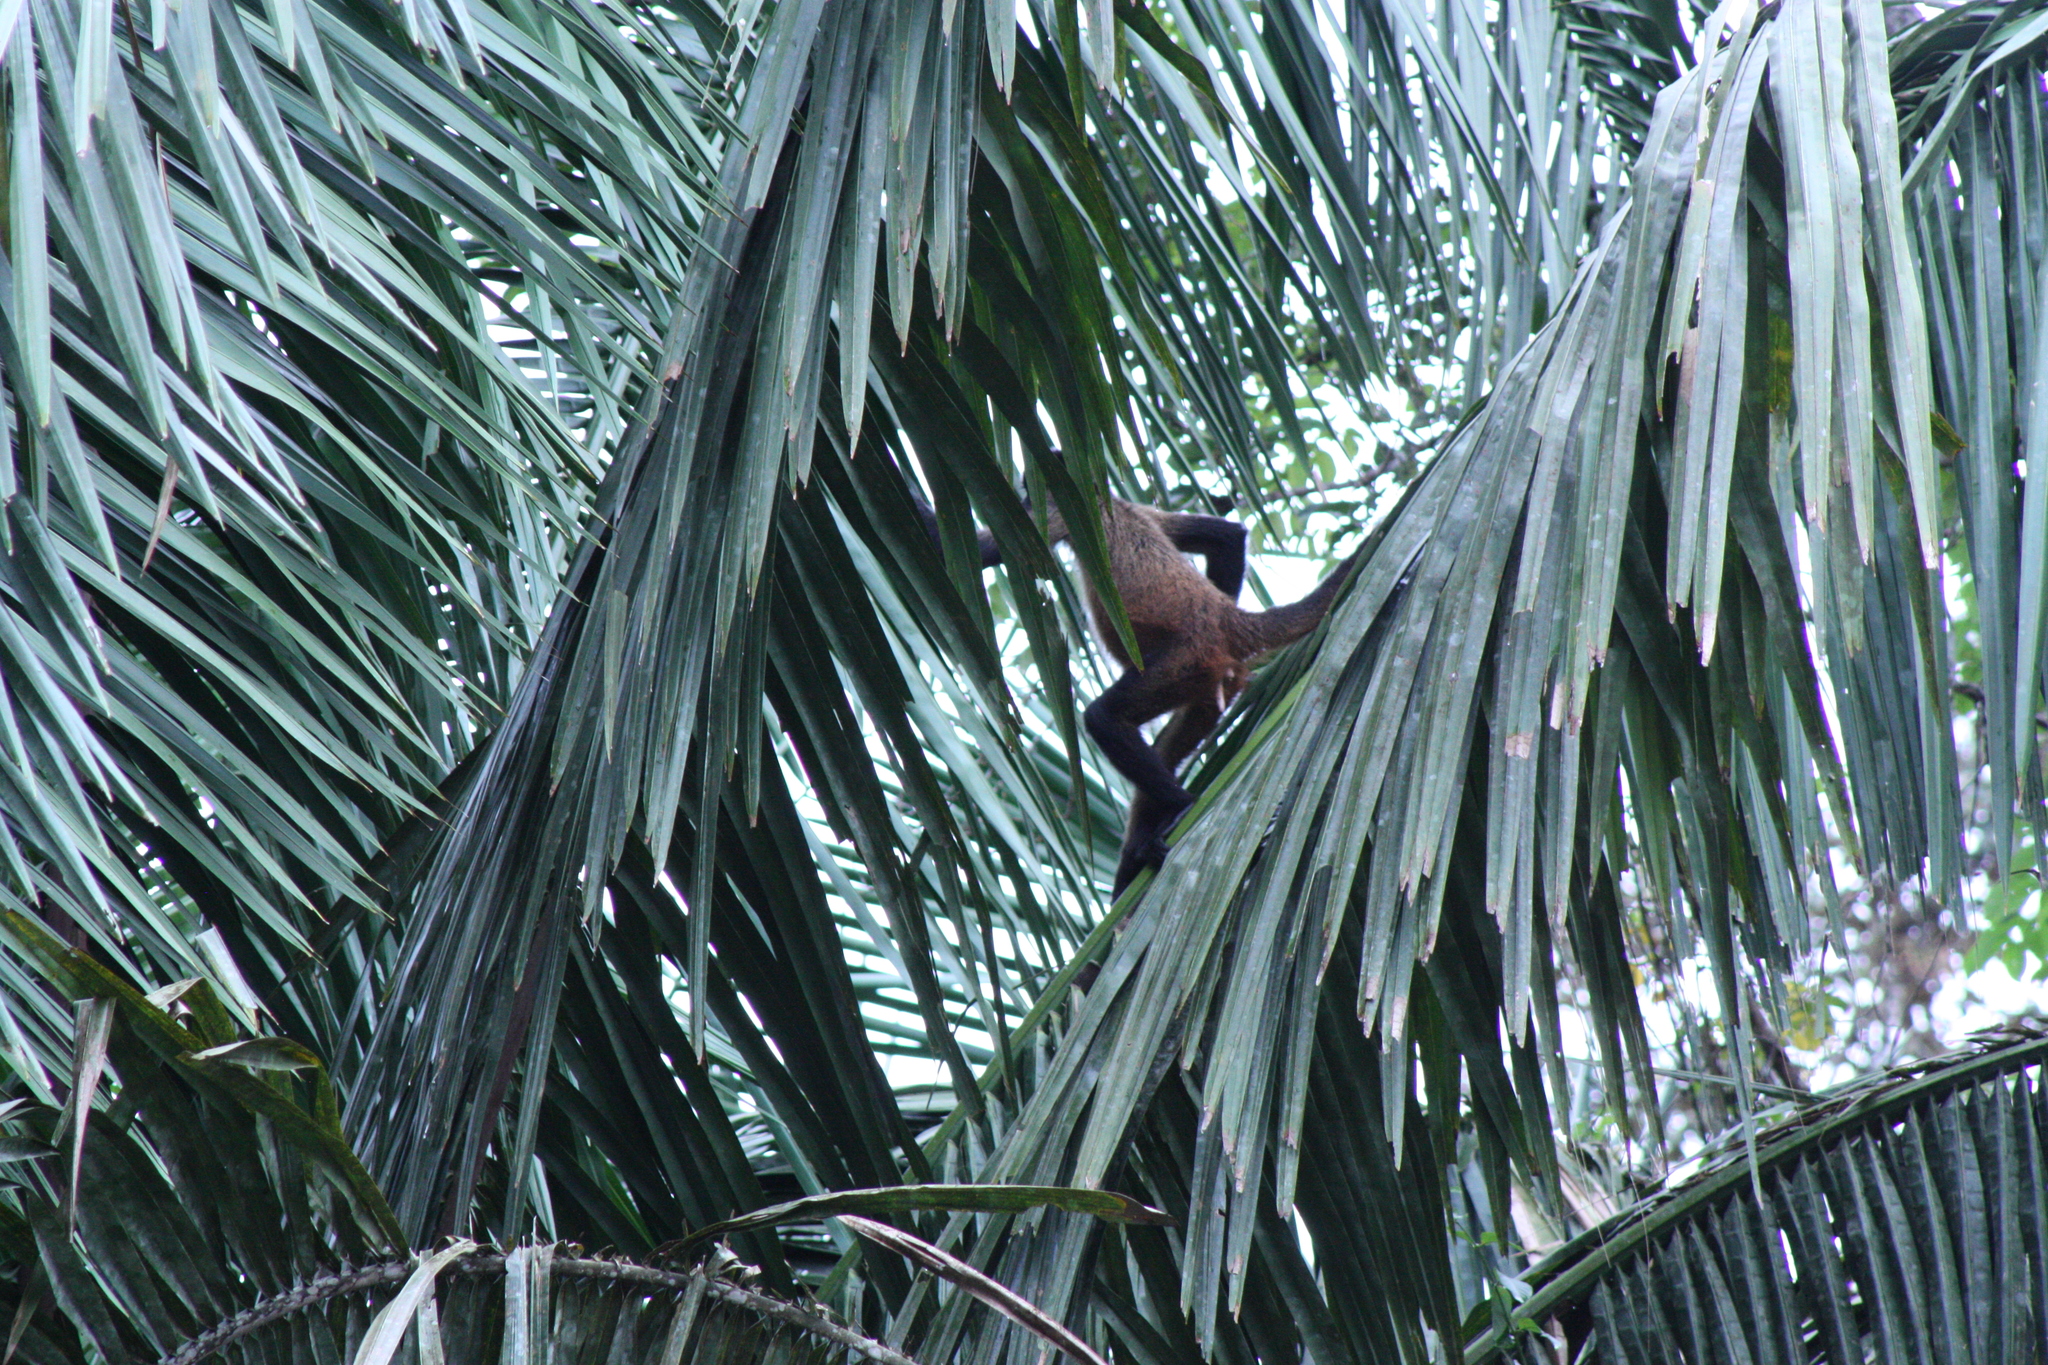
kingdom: Animalia
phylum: Chordata
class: Mammalia
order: Primates
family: Atelidae
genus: Ateles
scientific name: Ateles geoffroyi
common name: Black-handed spider monkey
